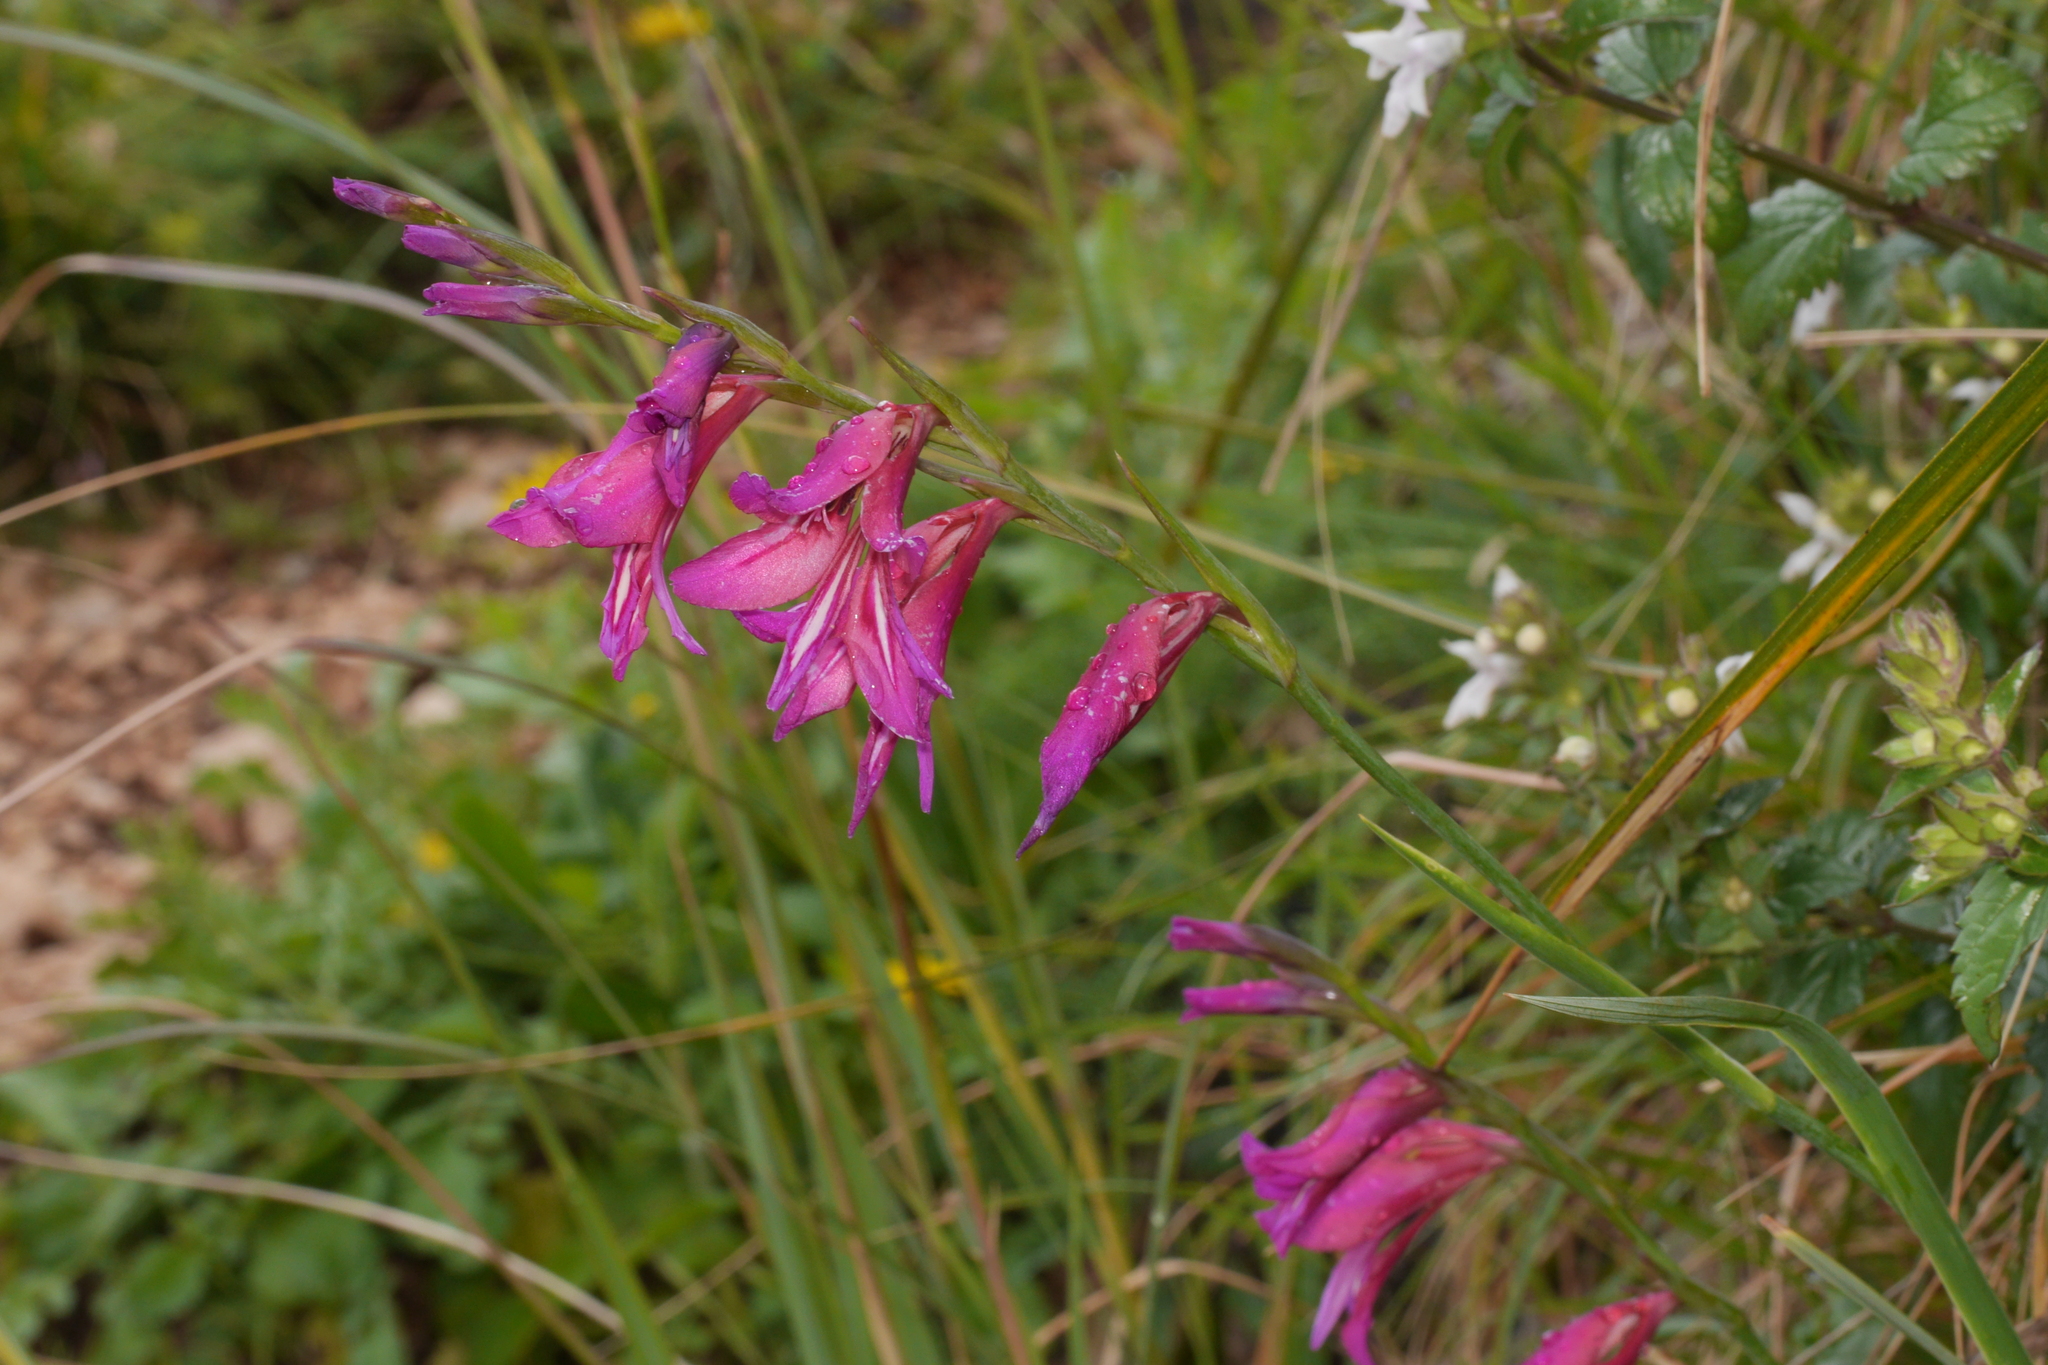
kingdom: Plantae
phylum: Tracheophyta
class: Liliopsida
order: Asparagales
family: Iridaceae
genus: Gladiolus
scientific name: Gladiolus italicus
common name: Field gladiolus
